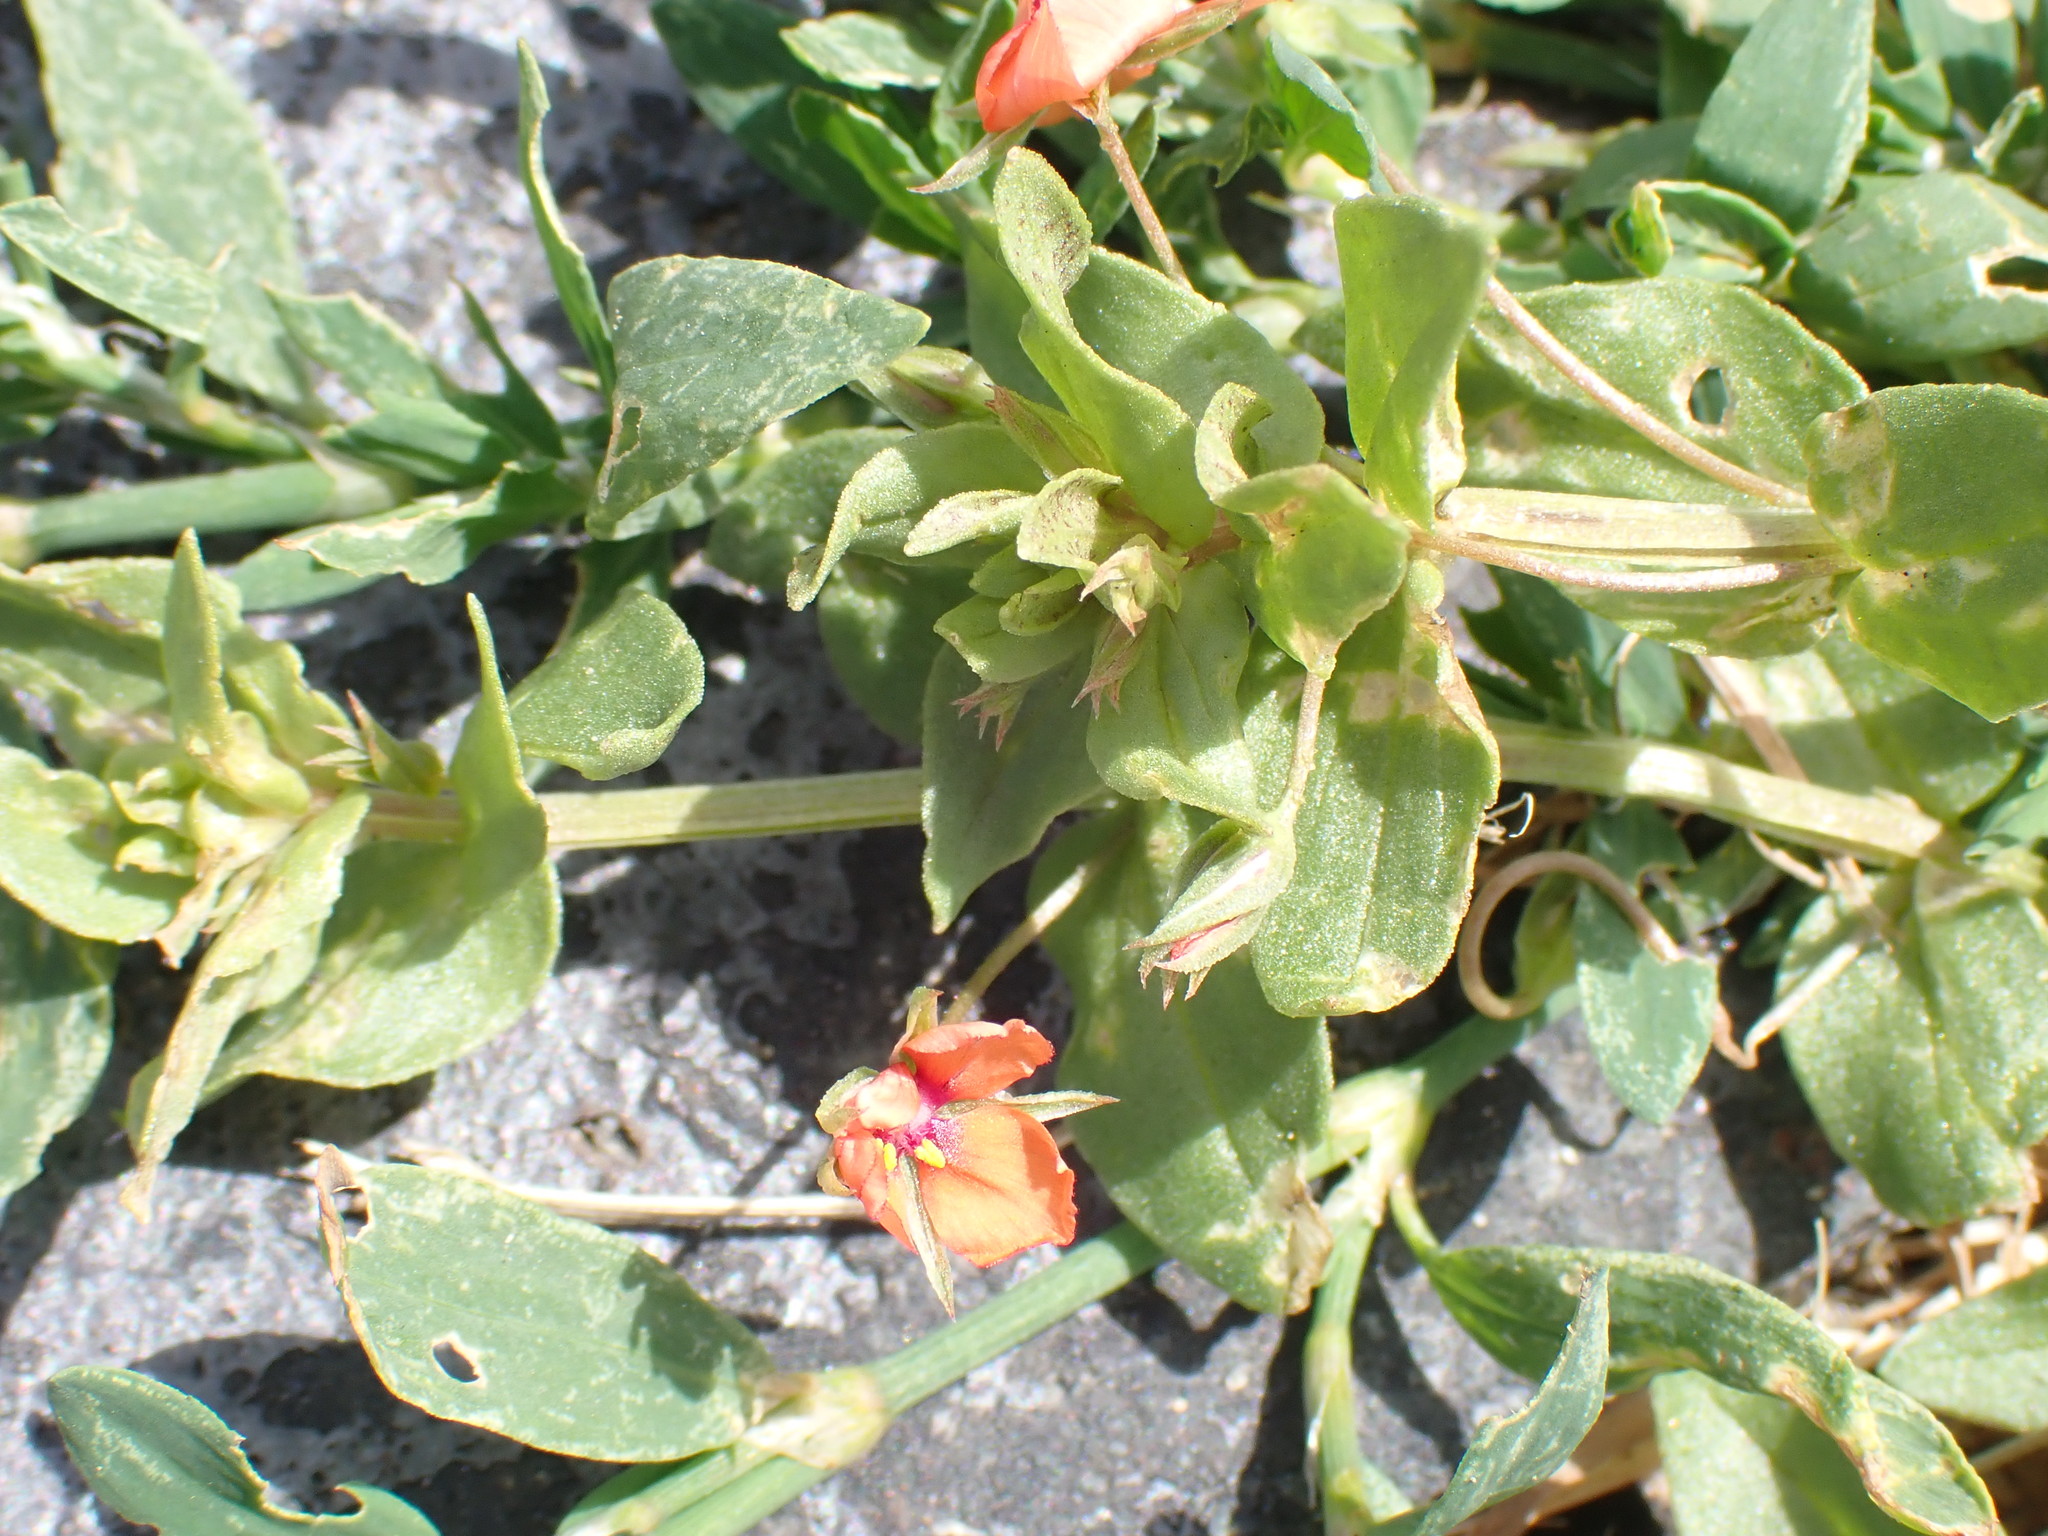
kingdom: Plantae
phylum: Tracheophyta
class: Magnoliopsida
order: Ericales
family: Primulaceae
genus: Lysimachia
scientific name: Lysimachia arvensis
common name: Scarlet pimpernel
